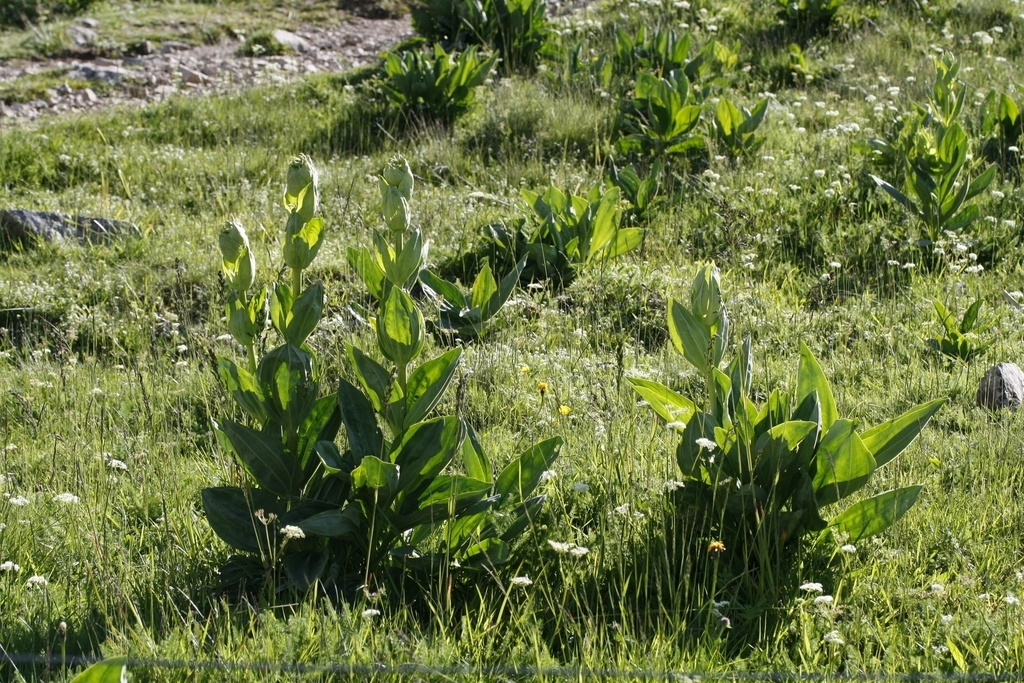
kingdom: Plantae
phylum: Tracheophyta
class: Magnoliopsida
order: Gentianales
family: Gentianaceae
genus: Gentiana
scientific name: Gentiana lutea
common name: Great yellow gentian
